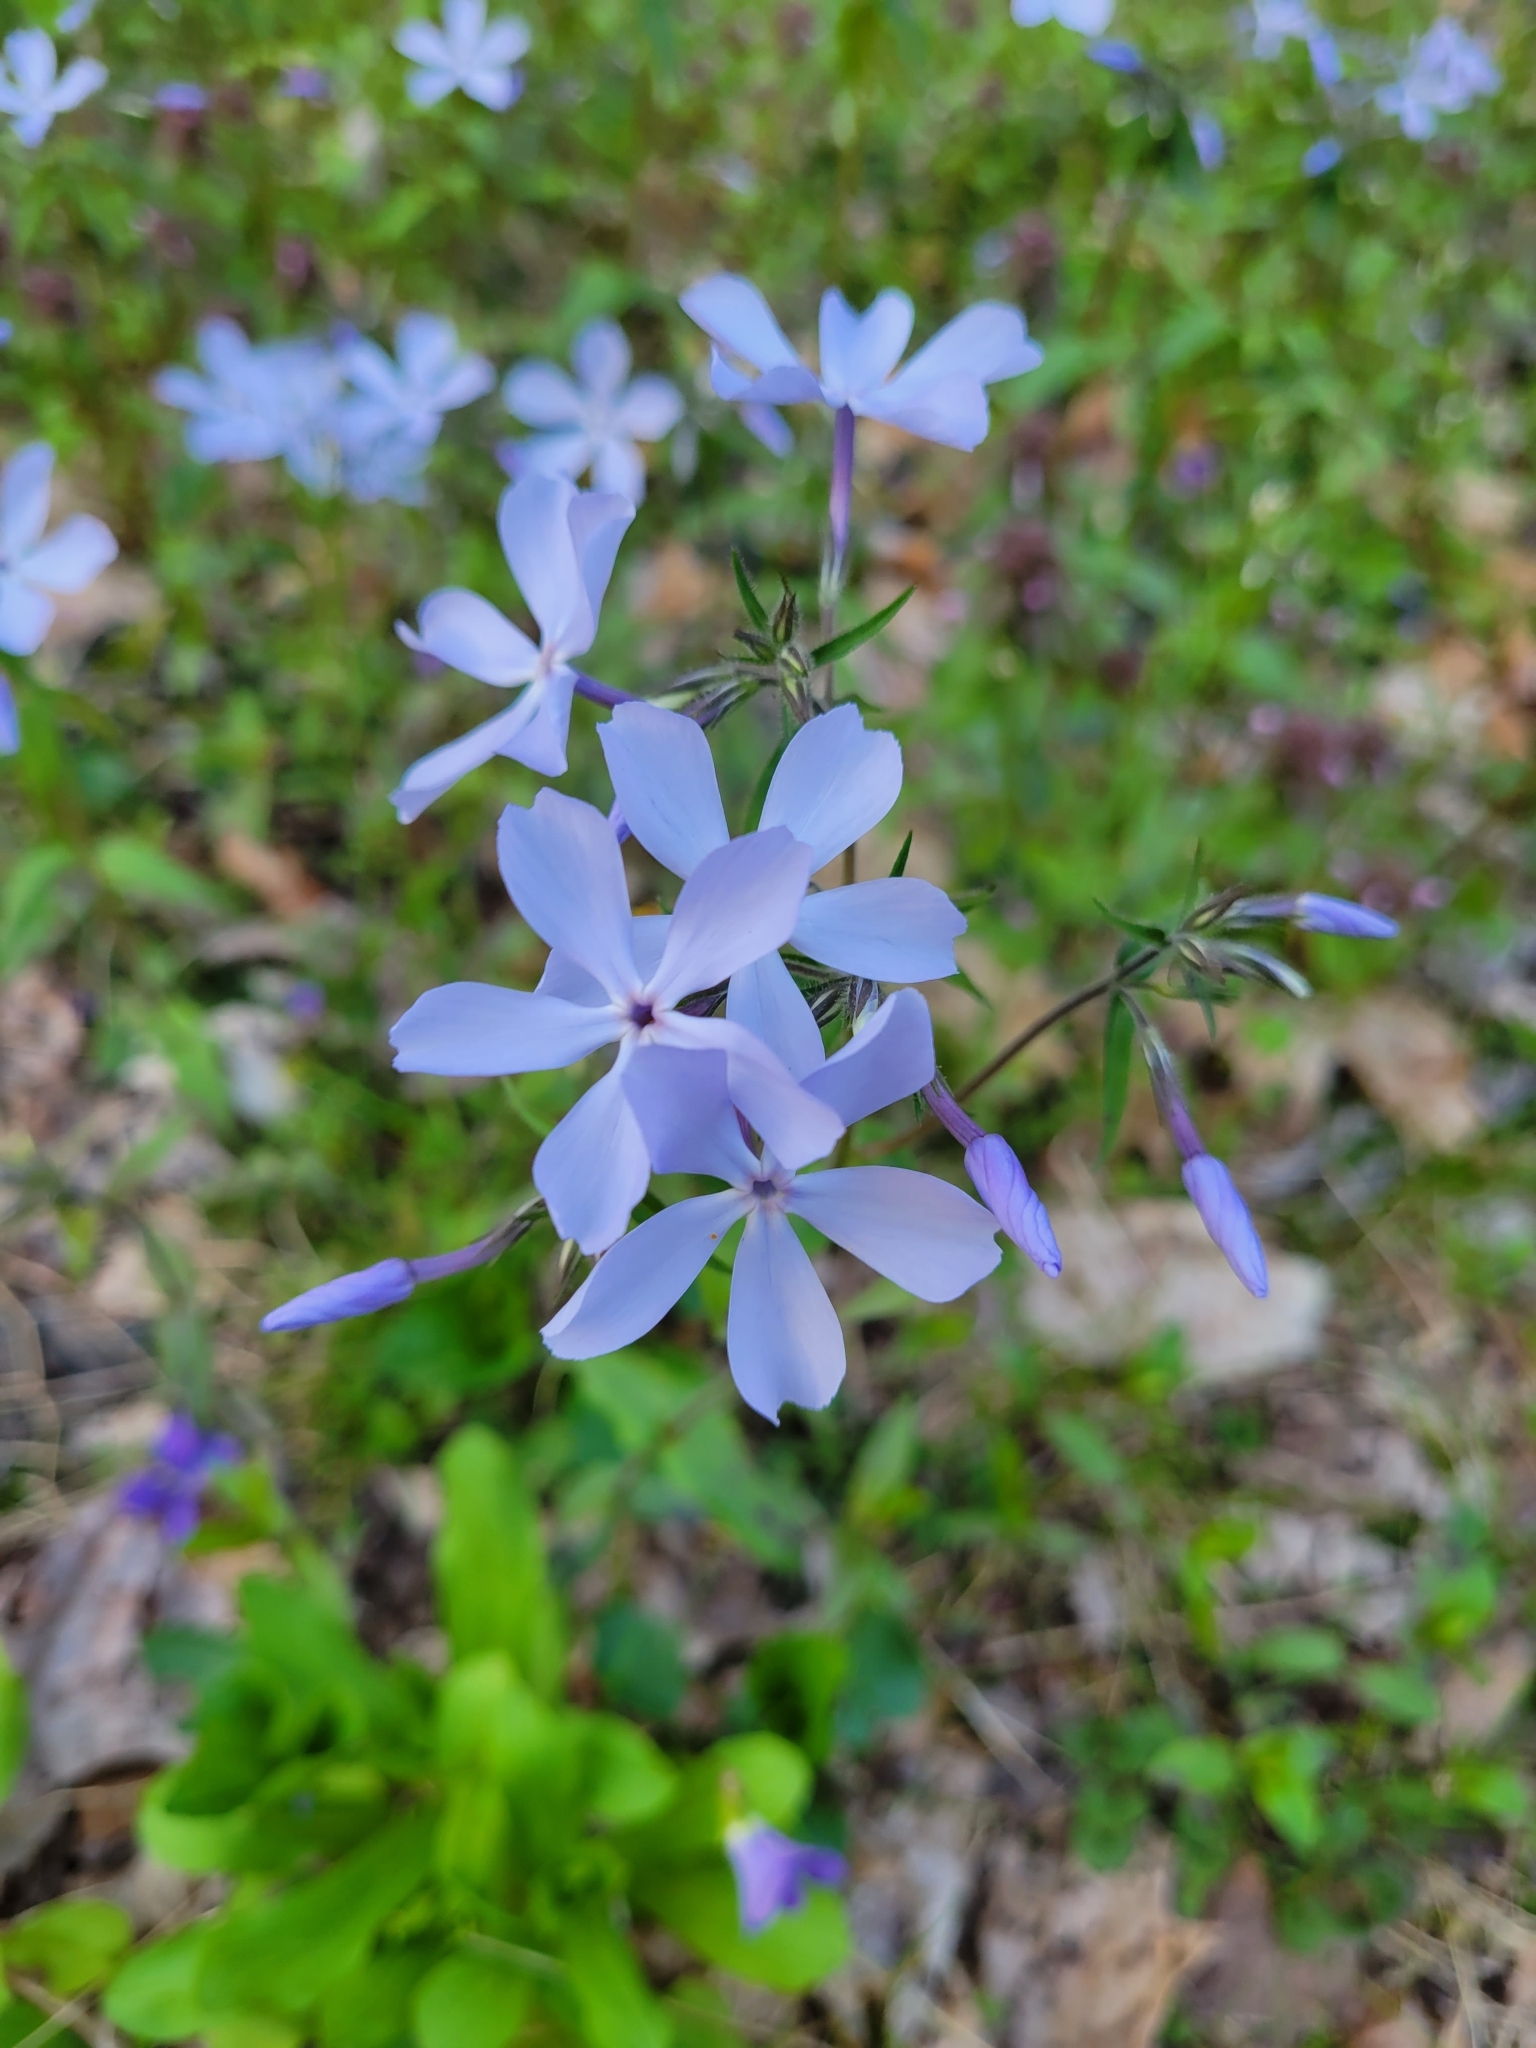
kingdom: Plantae
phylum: Tracheophyta
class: Magnoliopsida
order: Ericales
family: Polemoniaceae
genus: Phlox
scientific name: Phlox divaricata
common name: Blue phlox
